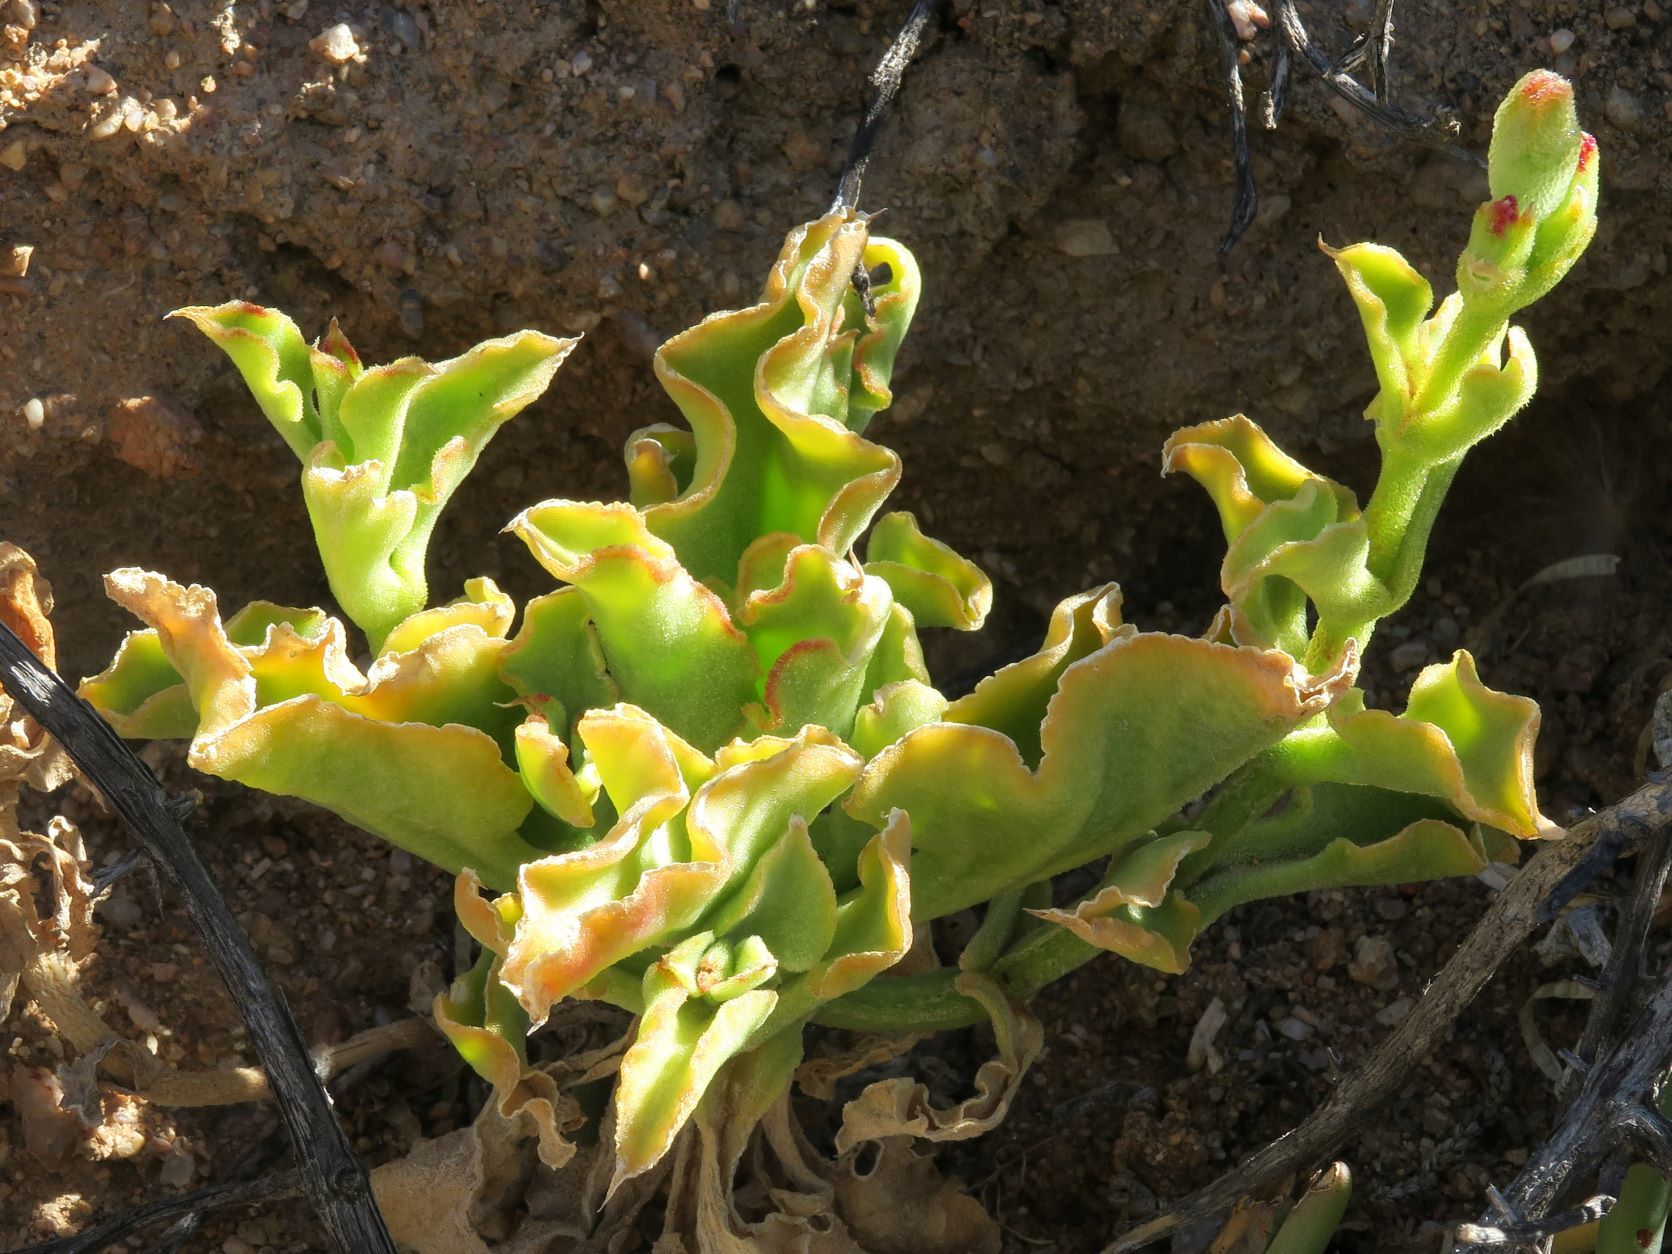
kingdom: Plantae
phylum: Tracheophyta
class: Magnoliopsida
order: Caryophyllales
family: Aizoaceae
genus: Mesembryanthemum
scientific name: Mesembryanthemum guerichianum
